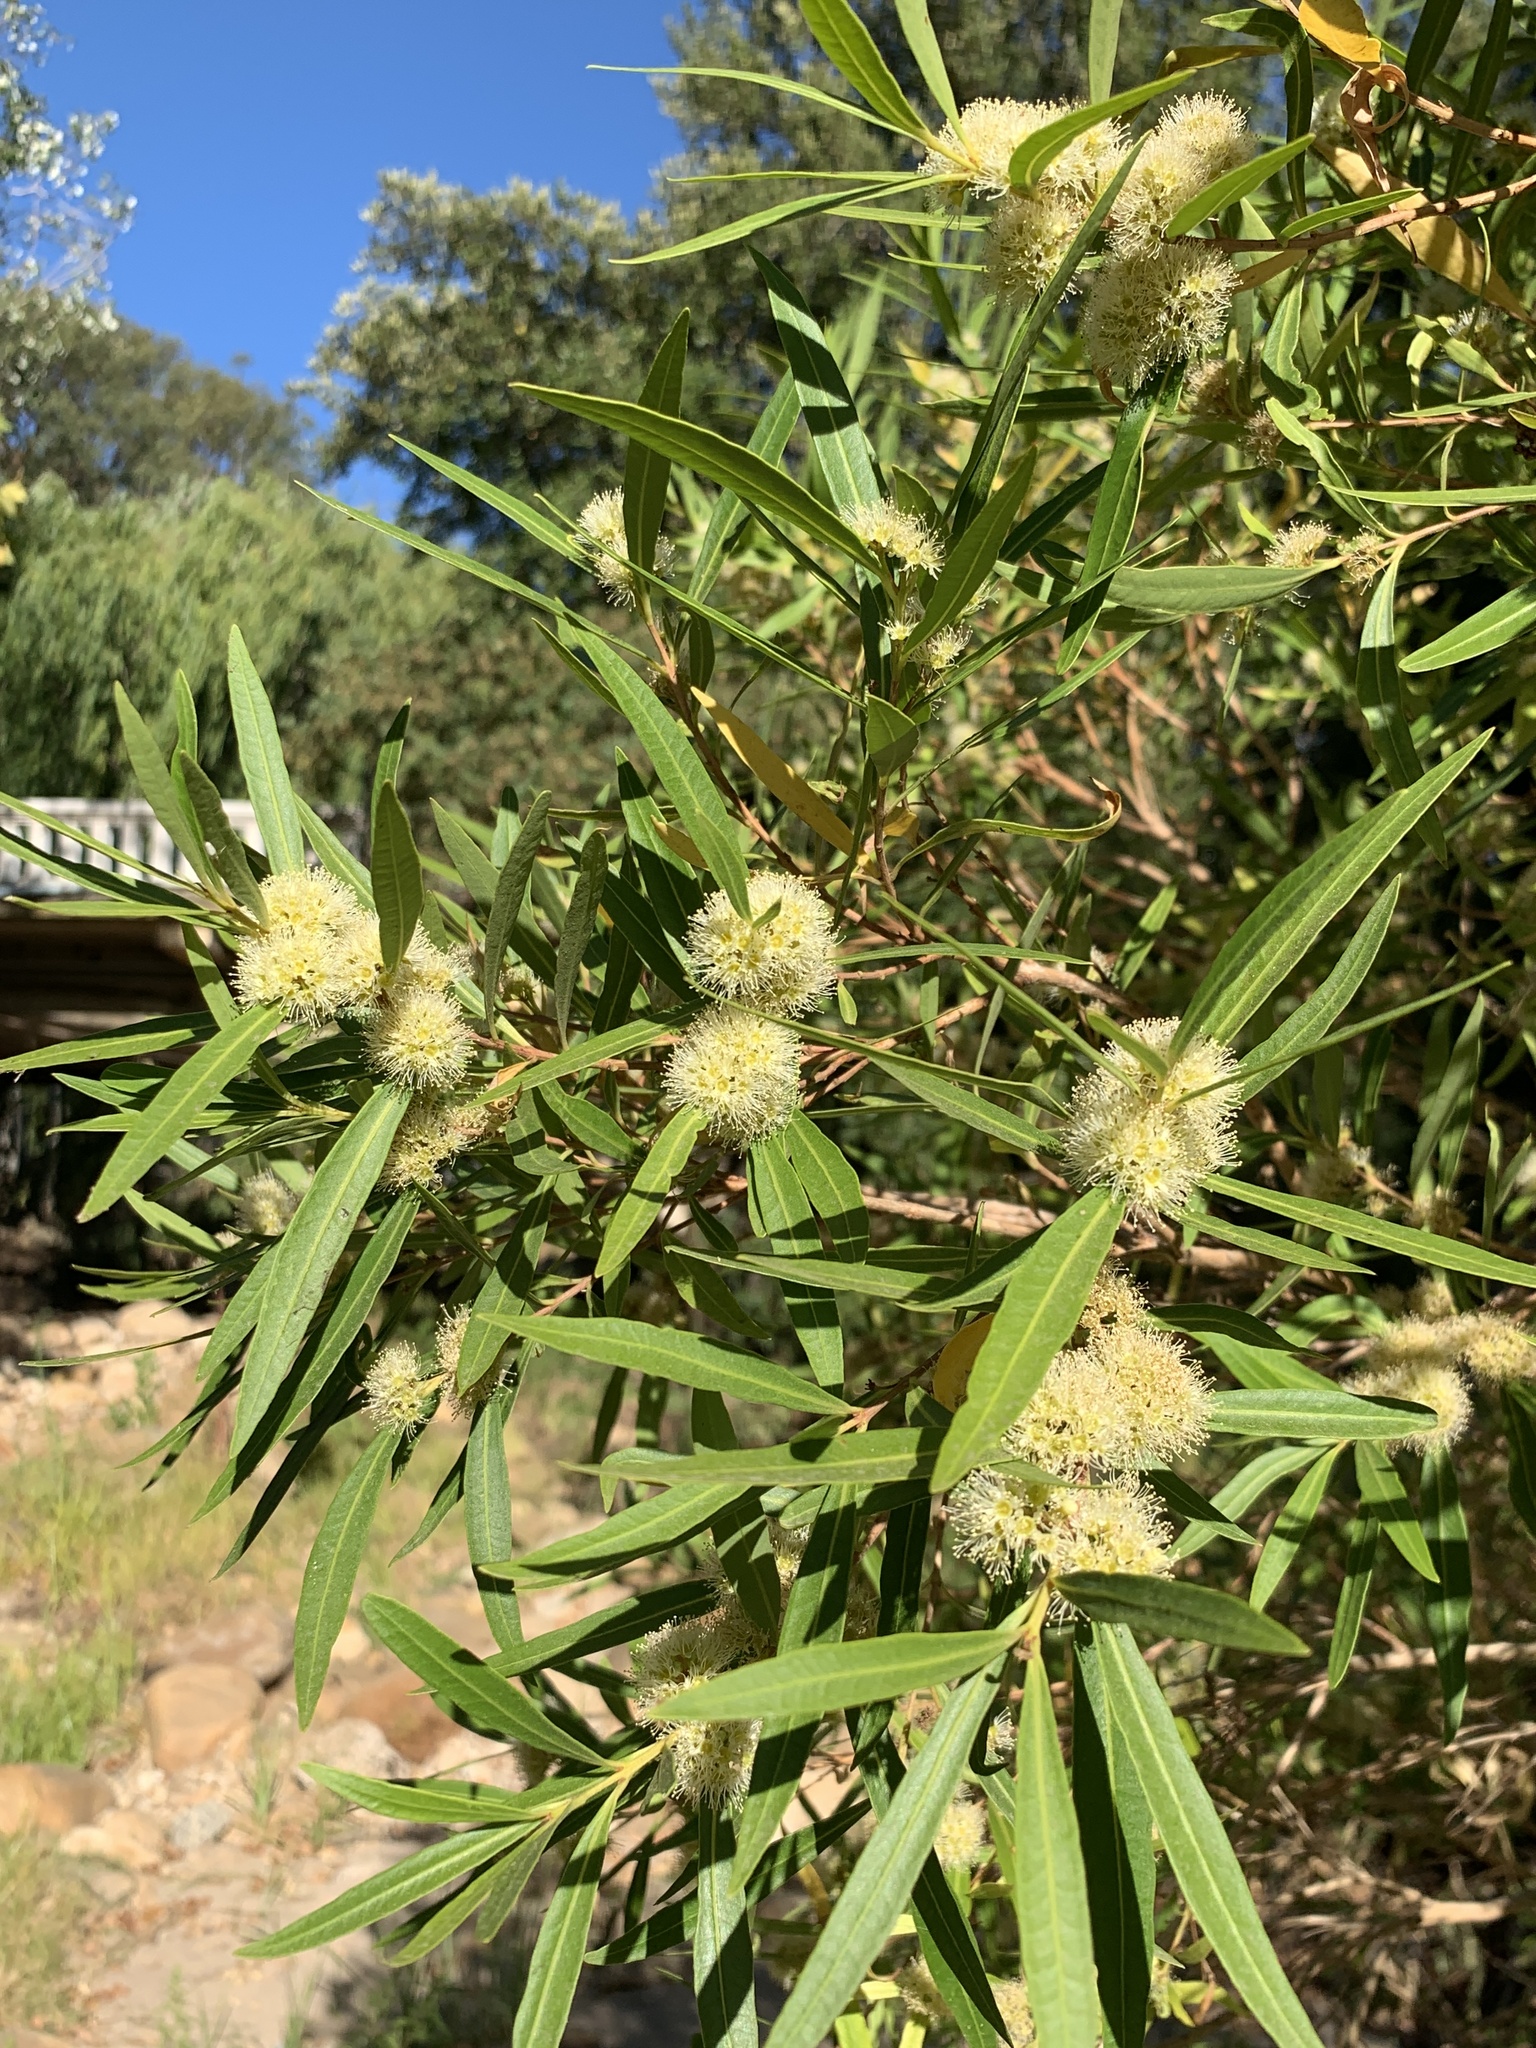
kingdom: Plantae
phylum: Tracheophyta
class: Magnoliopsida
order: Myrtales
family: Myrtaceae
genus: Callistemon
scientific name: Callistemon lanceolatus
